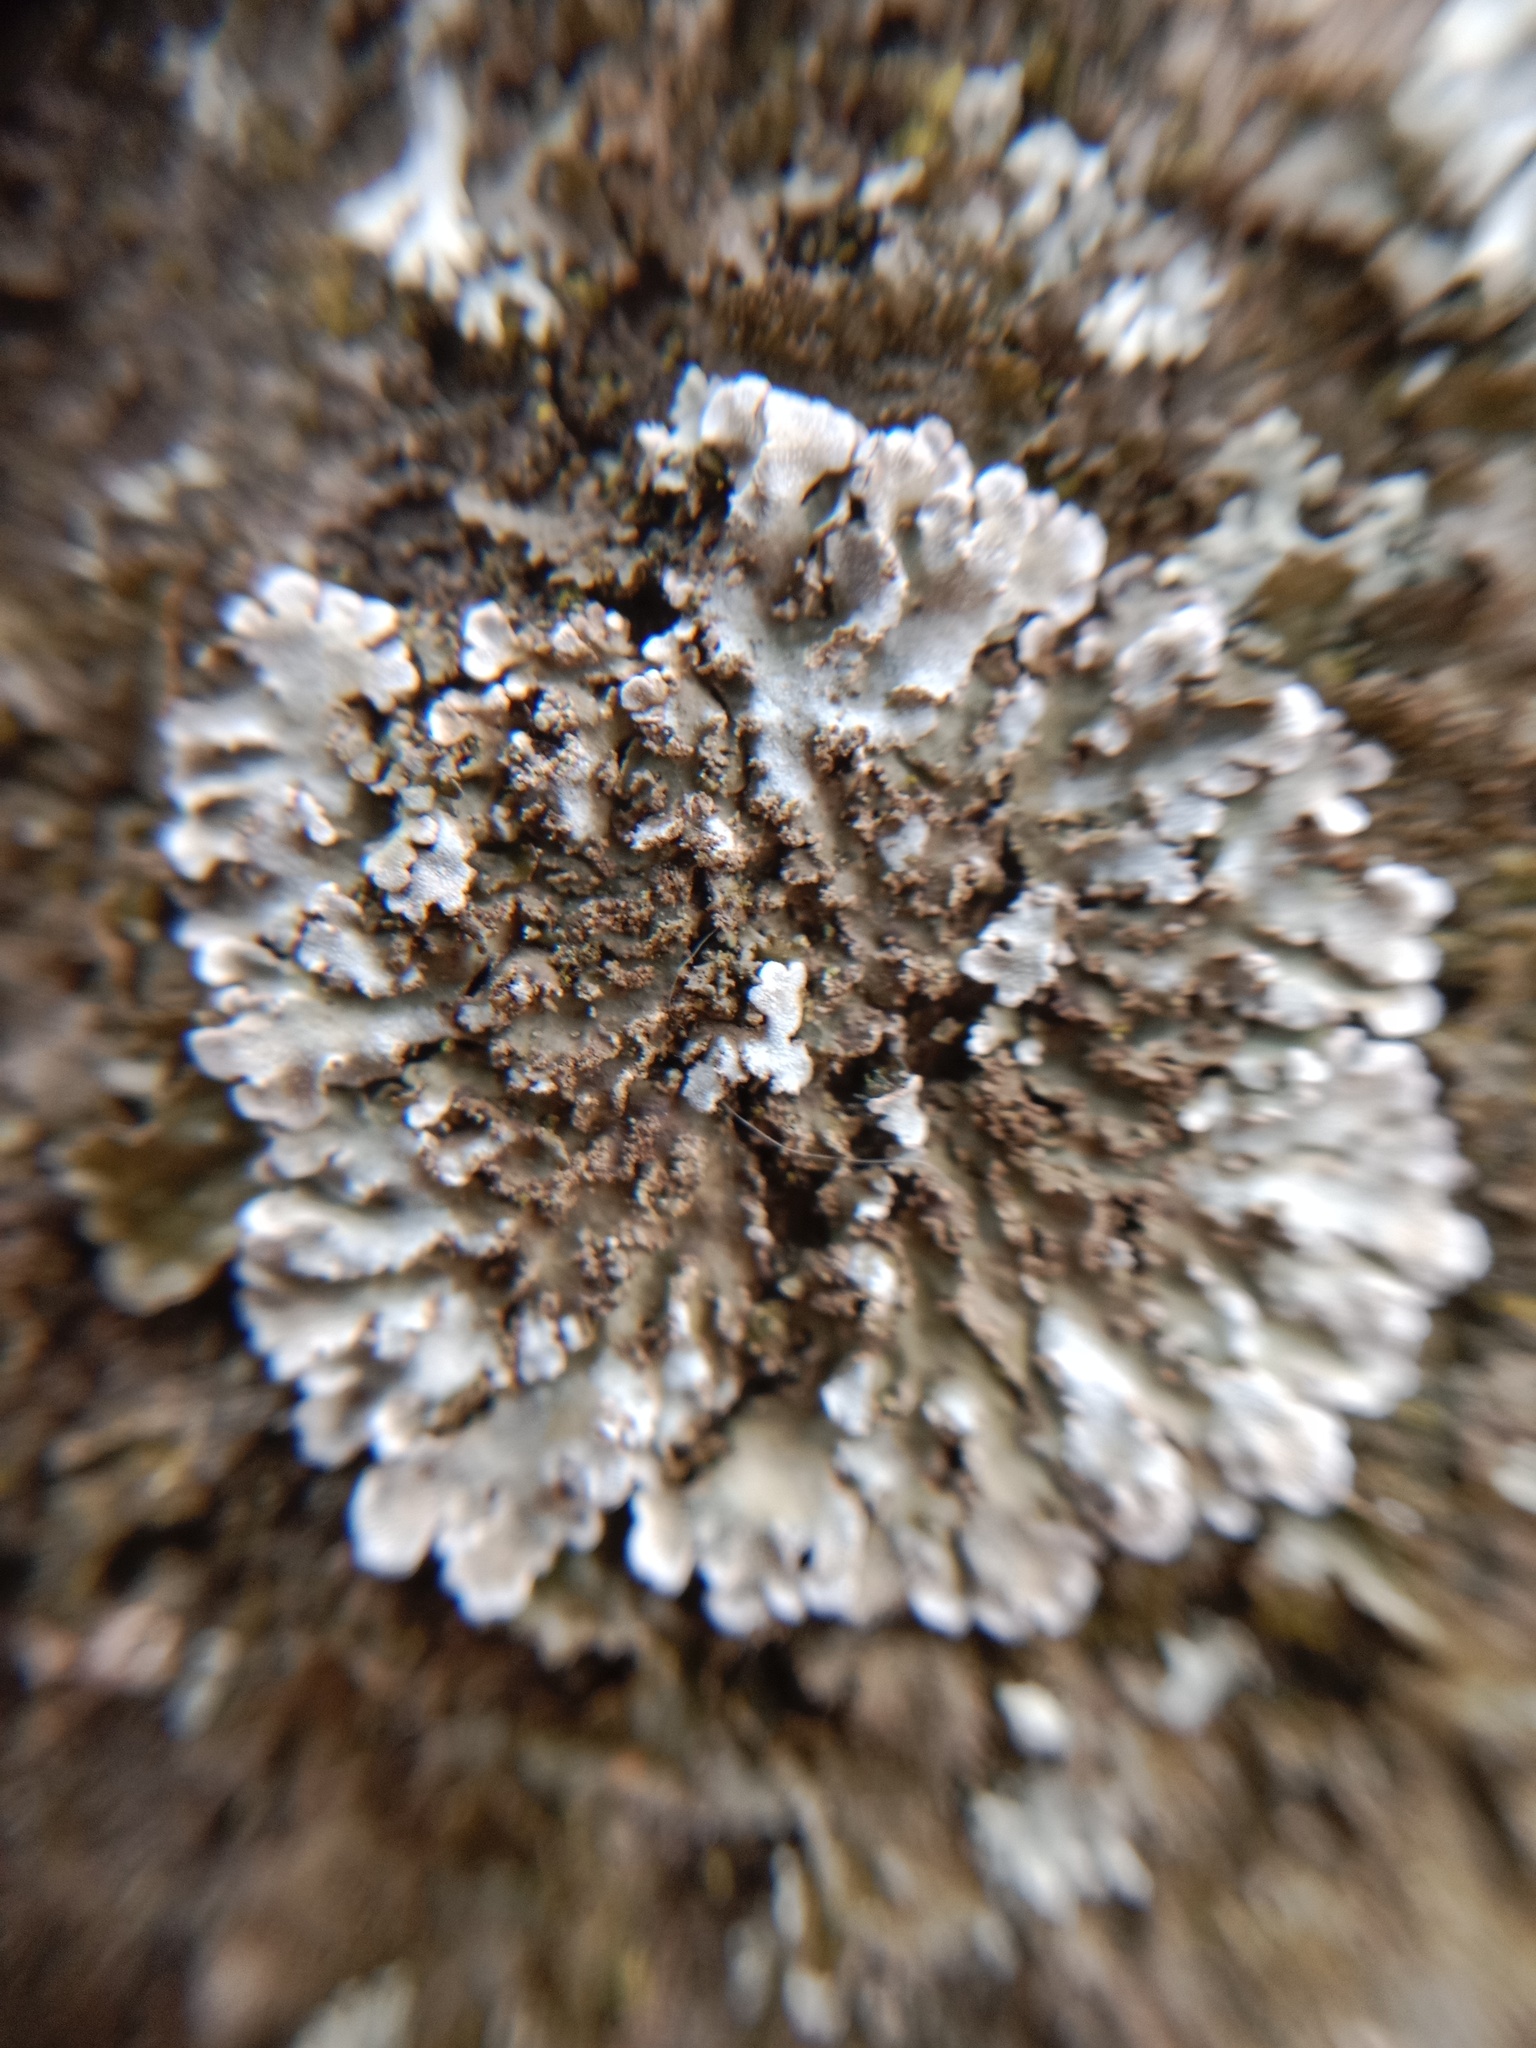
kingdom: Fungi
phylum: Ascomycota
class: Lecanoromycetes
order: Caliciales
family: Physciaceae
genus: Physconia
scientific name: Physconia enteroxantha
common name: Yellow-edged frost lichen
